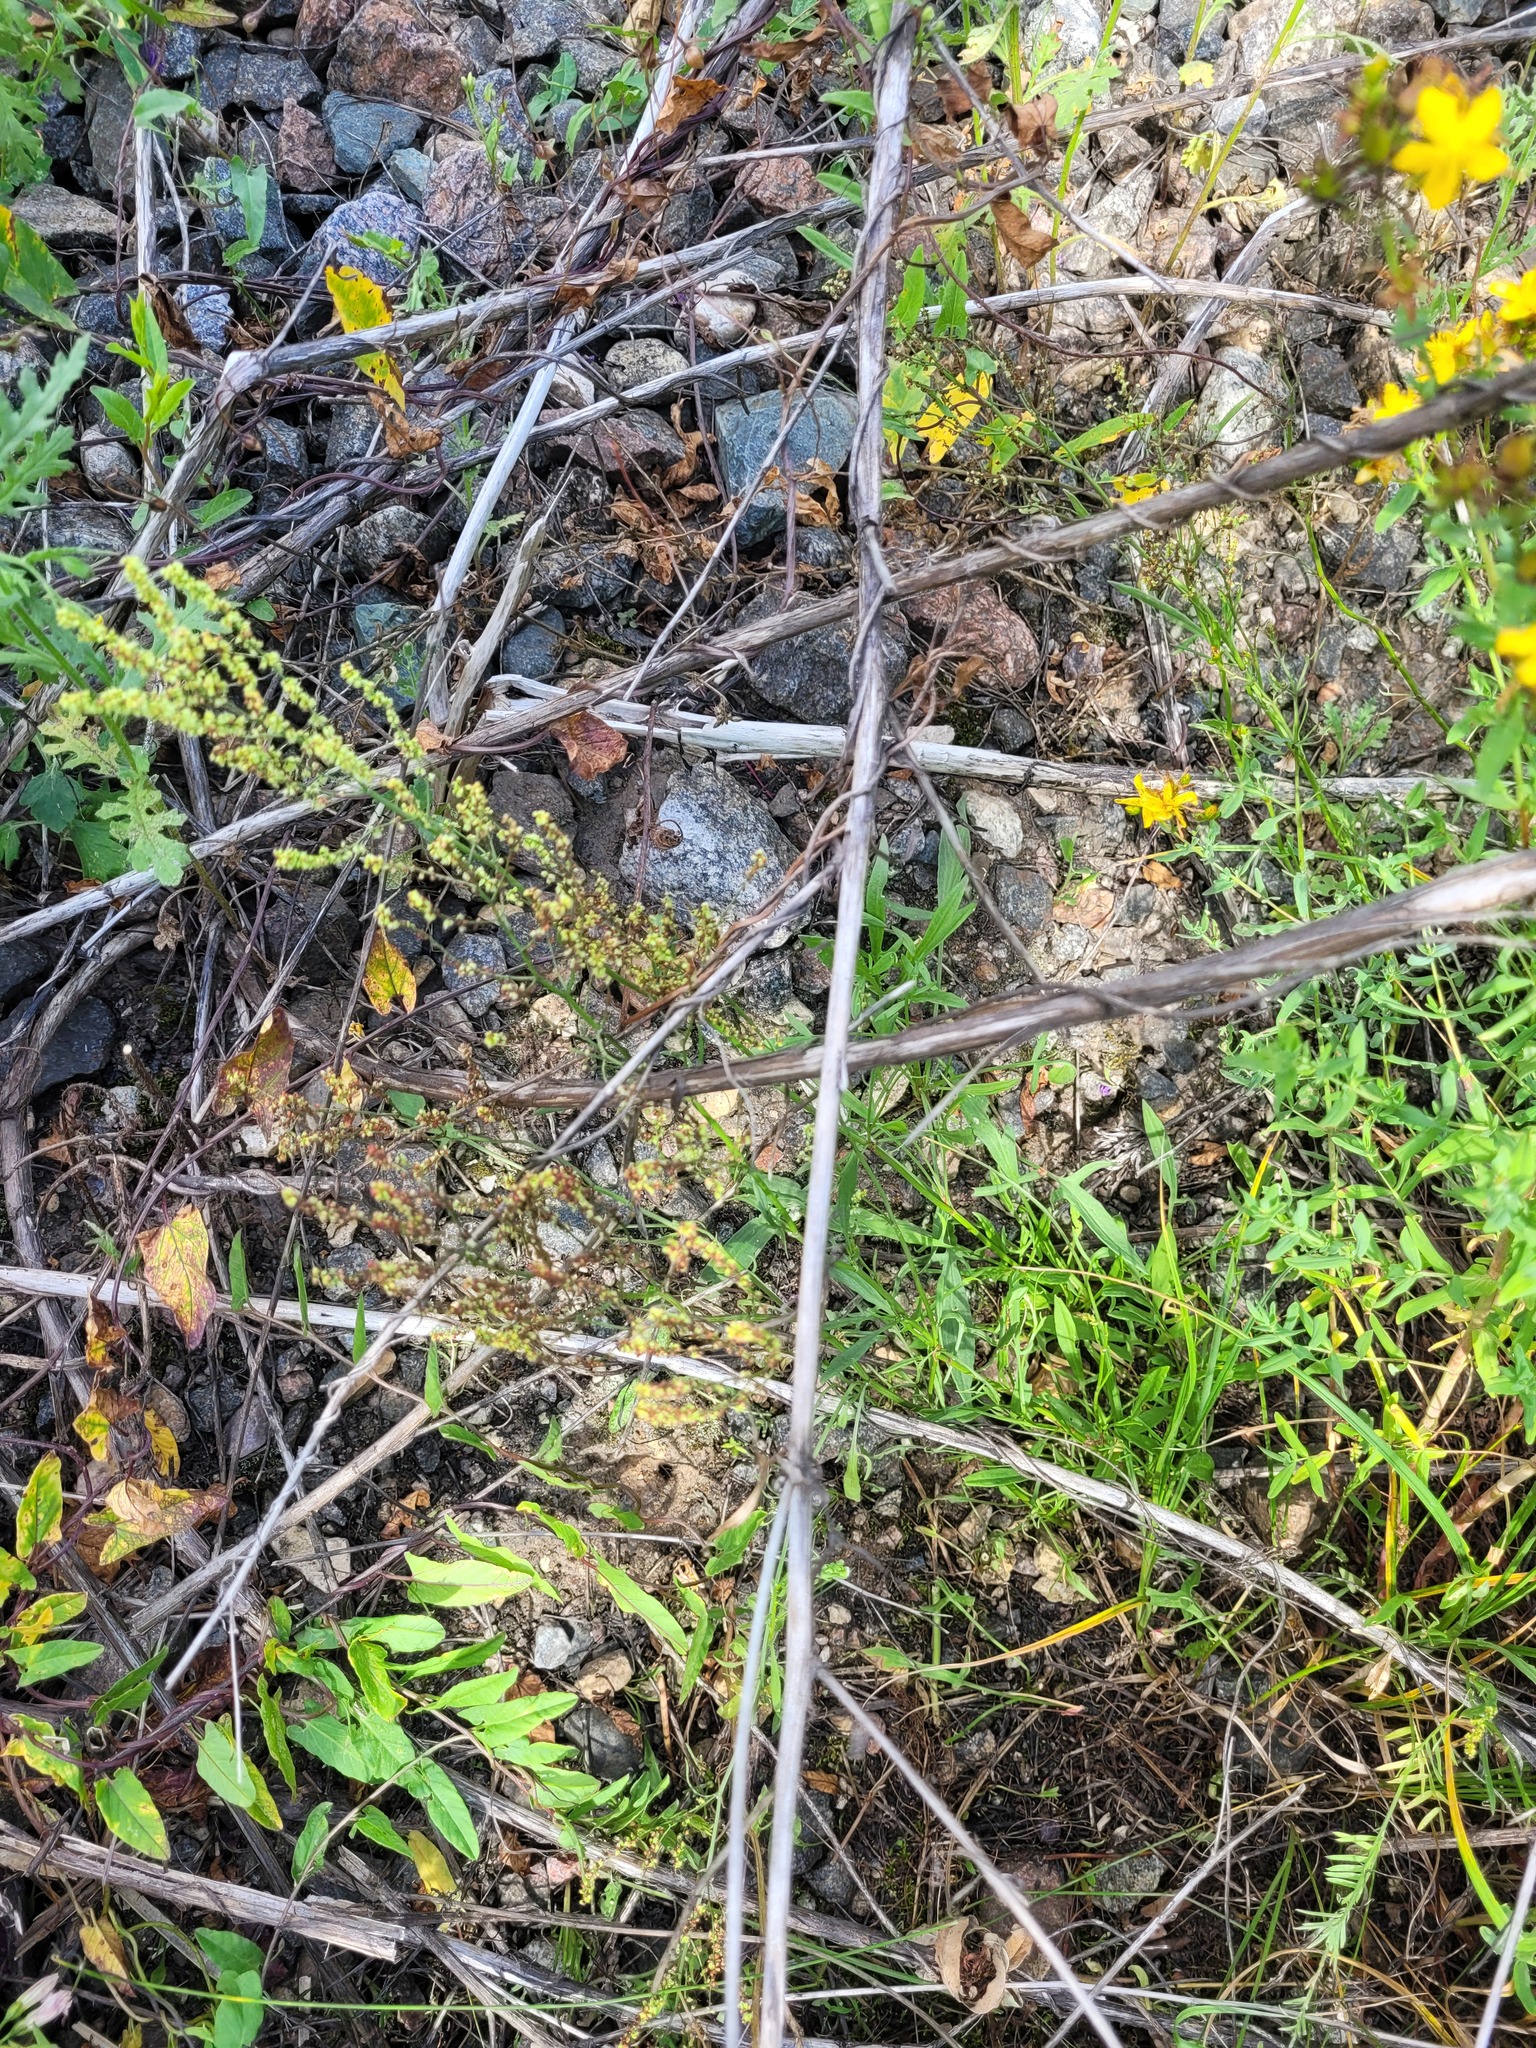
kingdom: Plantae
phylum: Tracheophyta
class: Magnoliopsida
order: Caryophyllales
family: Polygonaceae
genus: Rumex
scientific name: Rumex acetosella
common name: Common sheep sorrel
